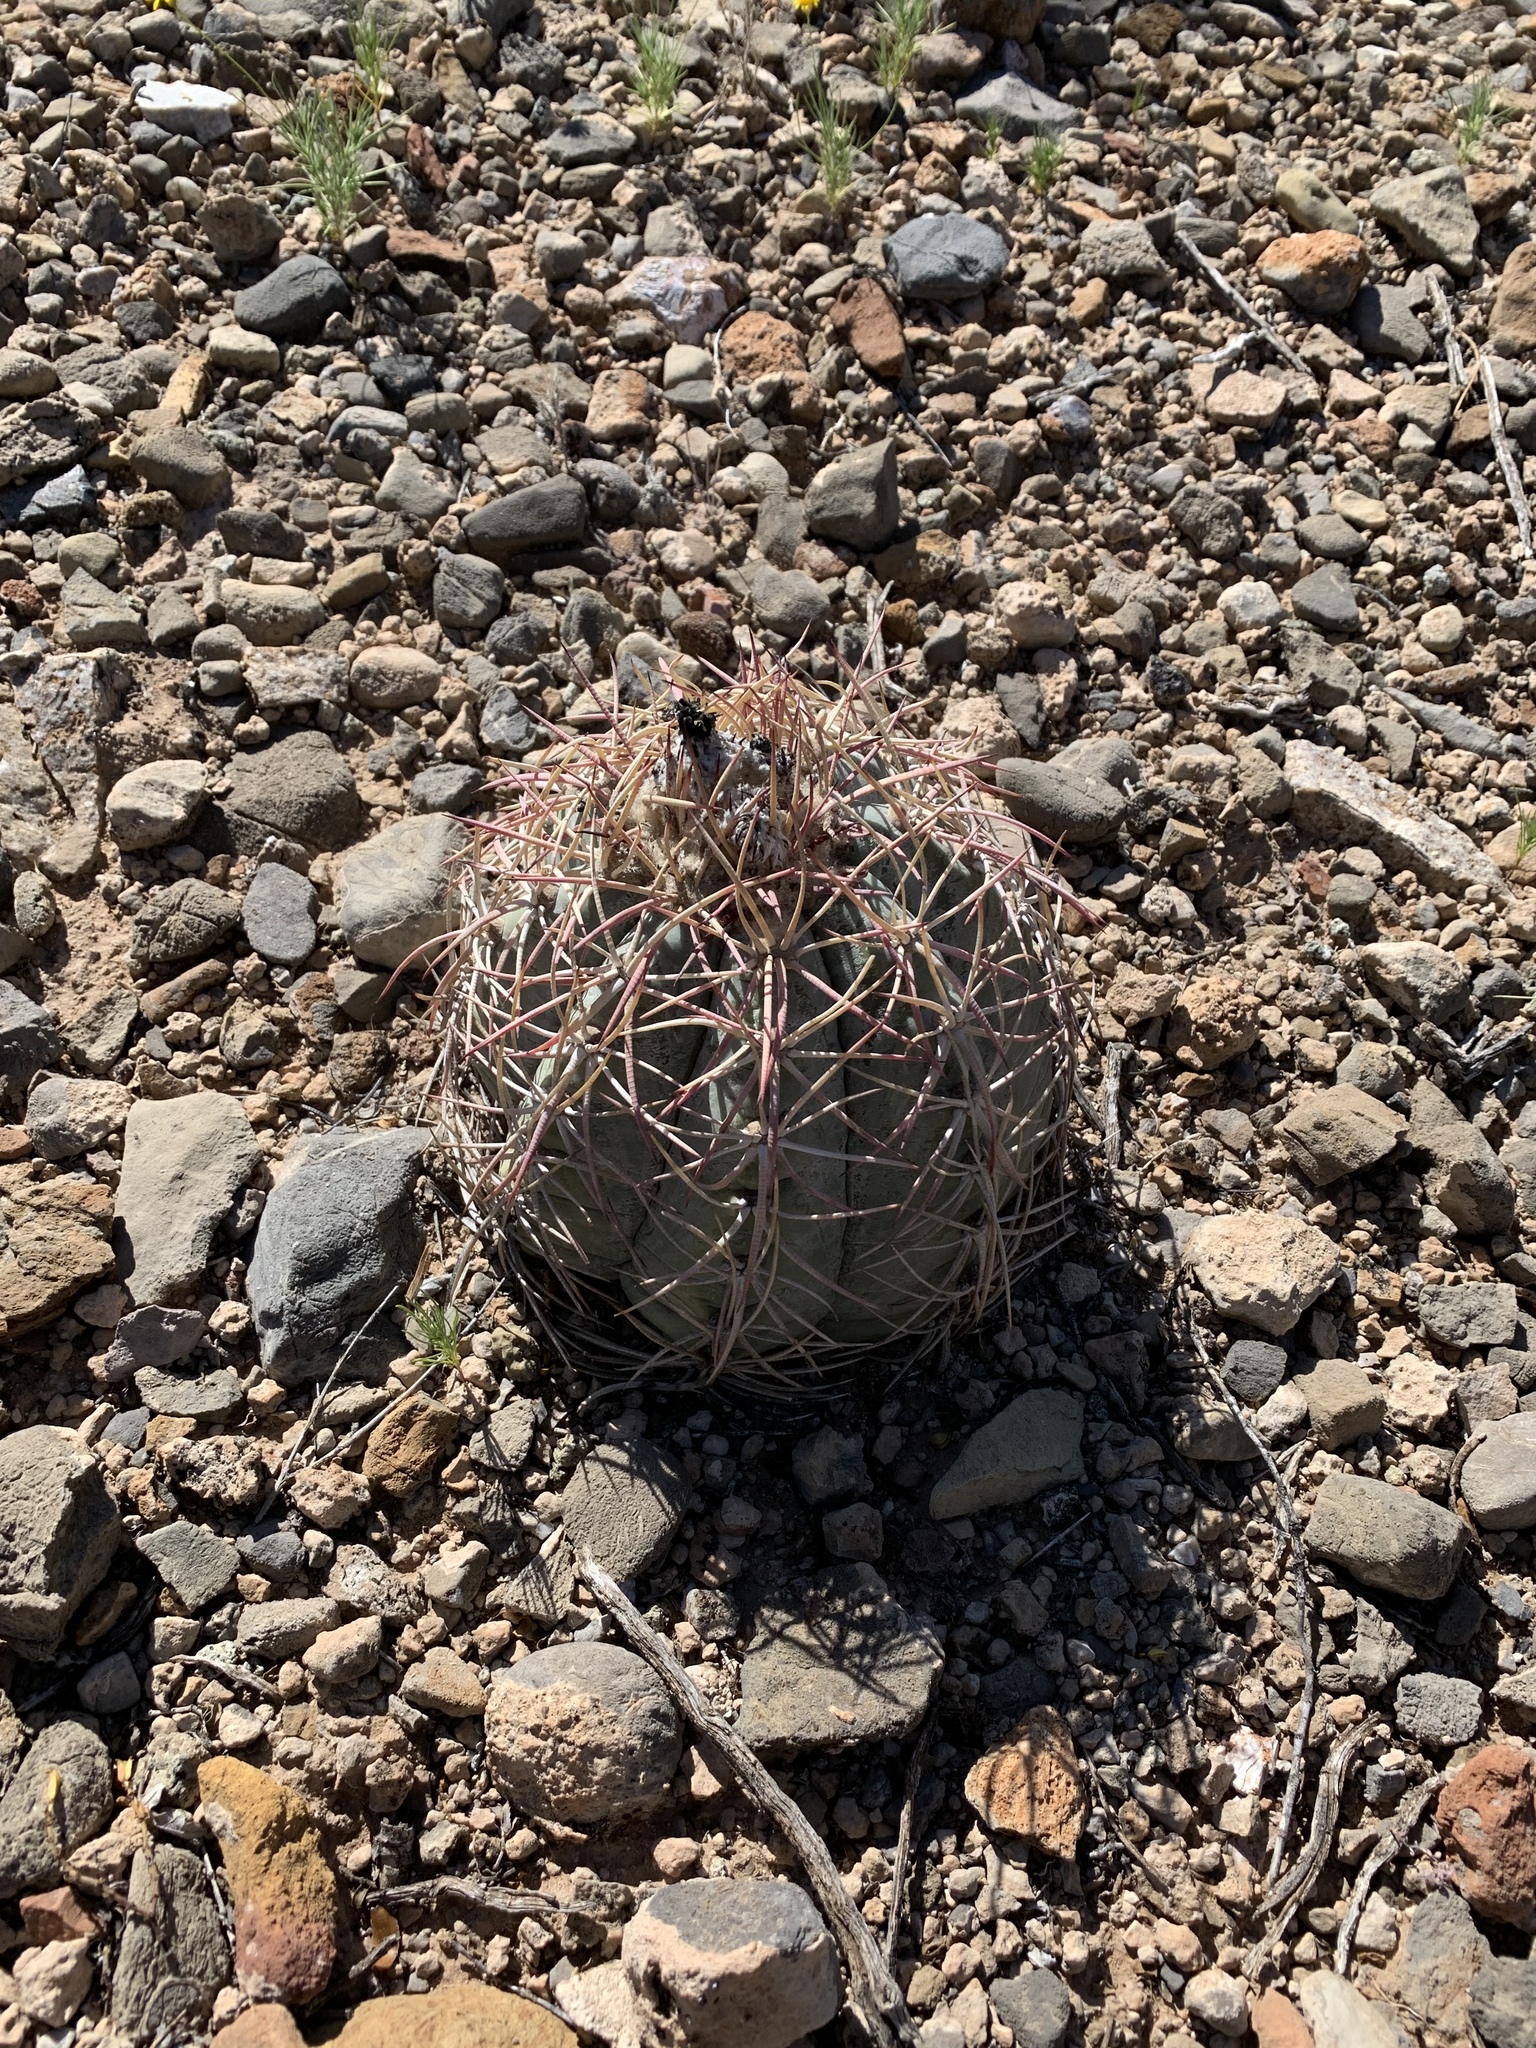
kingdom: Plantae
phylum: Tracheophyta
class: Magnoliopsida
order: Caryophyllales
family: Cactaceae
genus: Echinocactus
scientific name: Echinocactus horizonthalonius
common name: Devilshead
